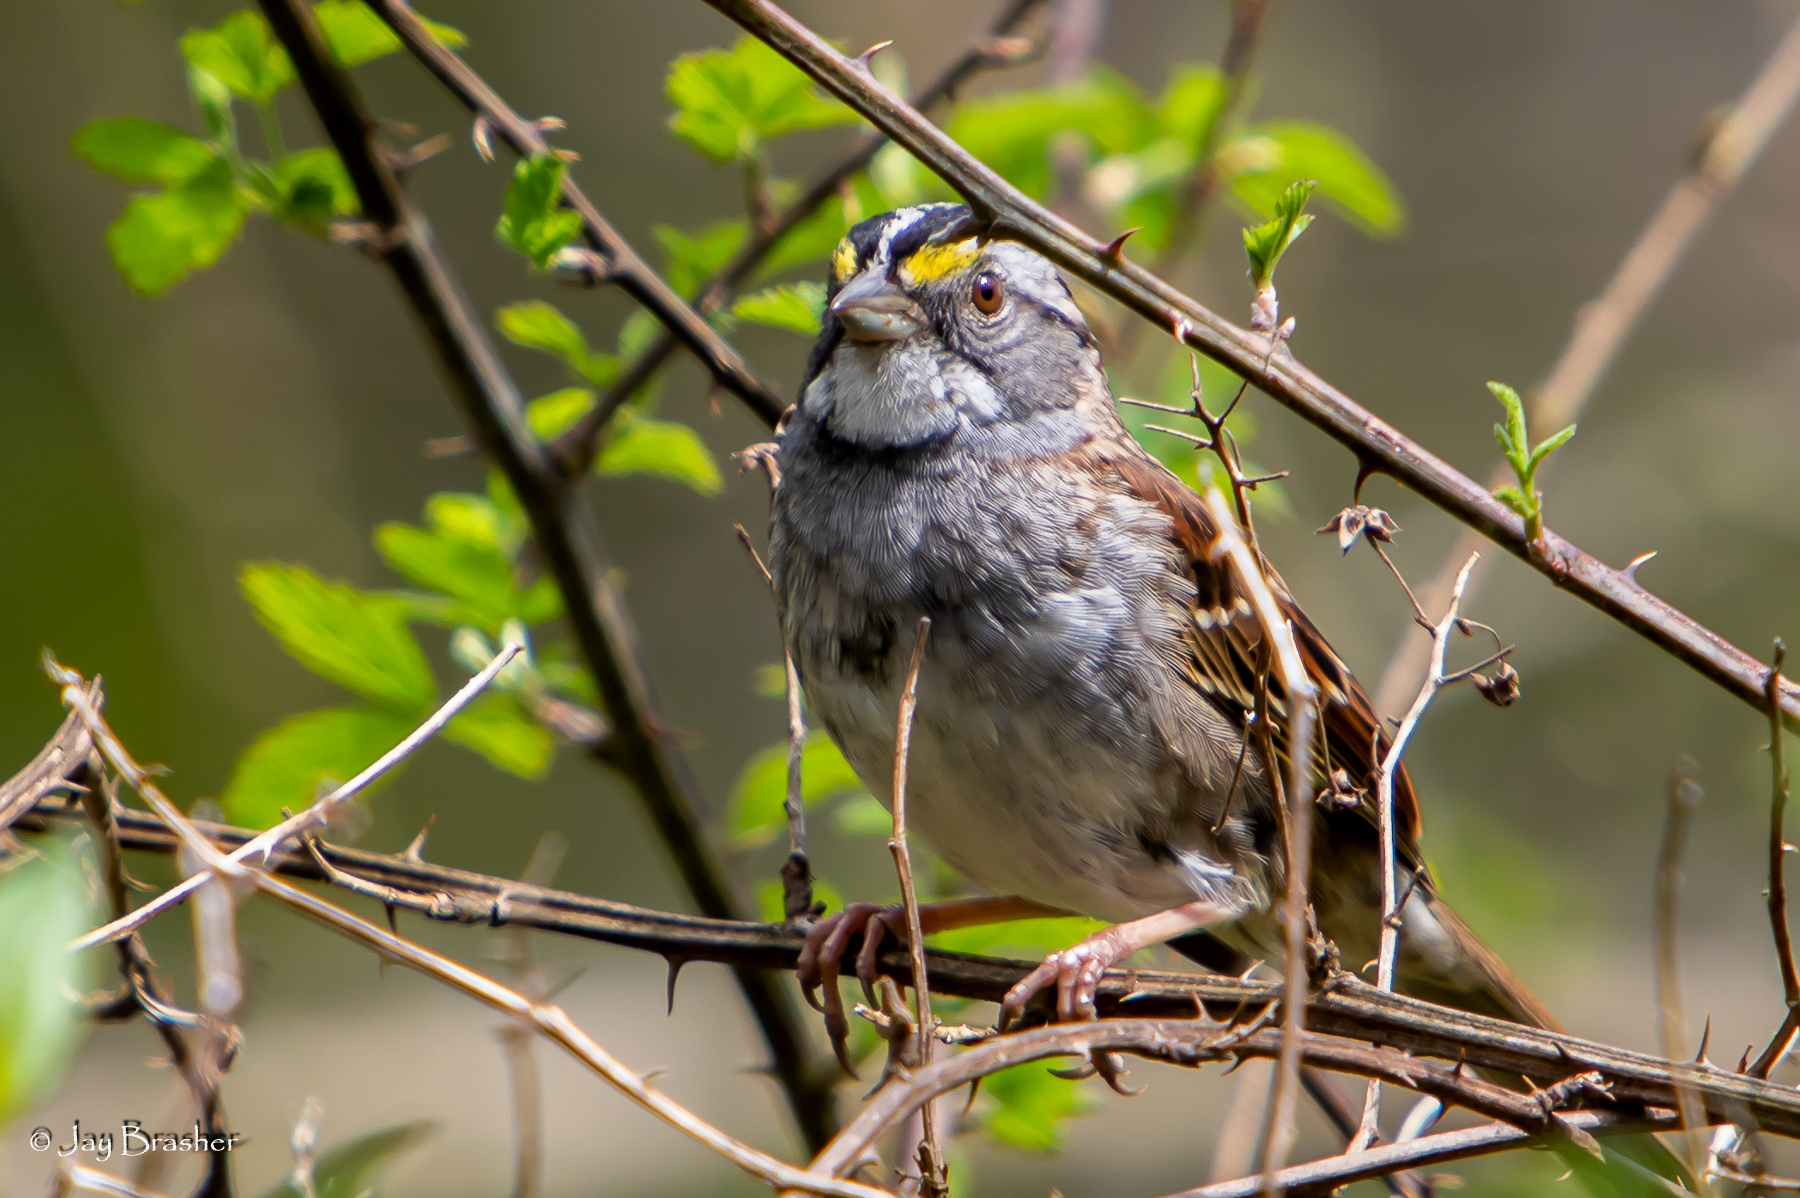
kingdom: Animalia
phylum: Chordata
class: Aves
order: Passeriformes
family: Passerellidae
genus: Zonotrichia
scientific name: Zonotrichia albicollis
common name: White-throated sparrow
